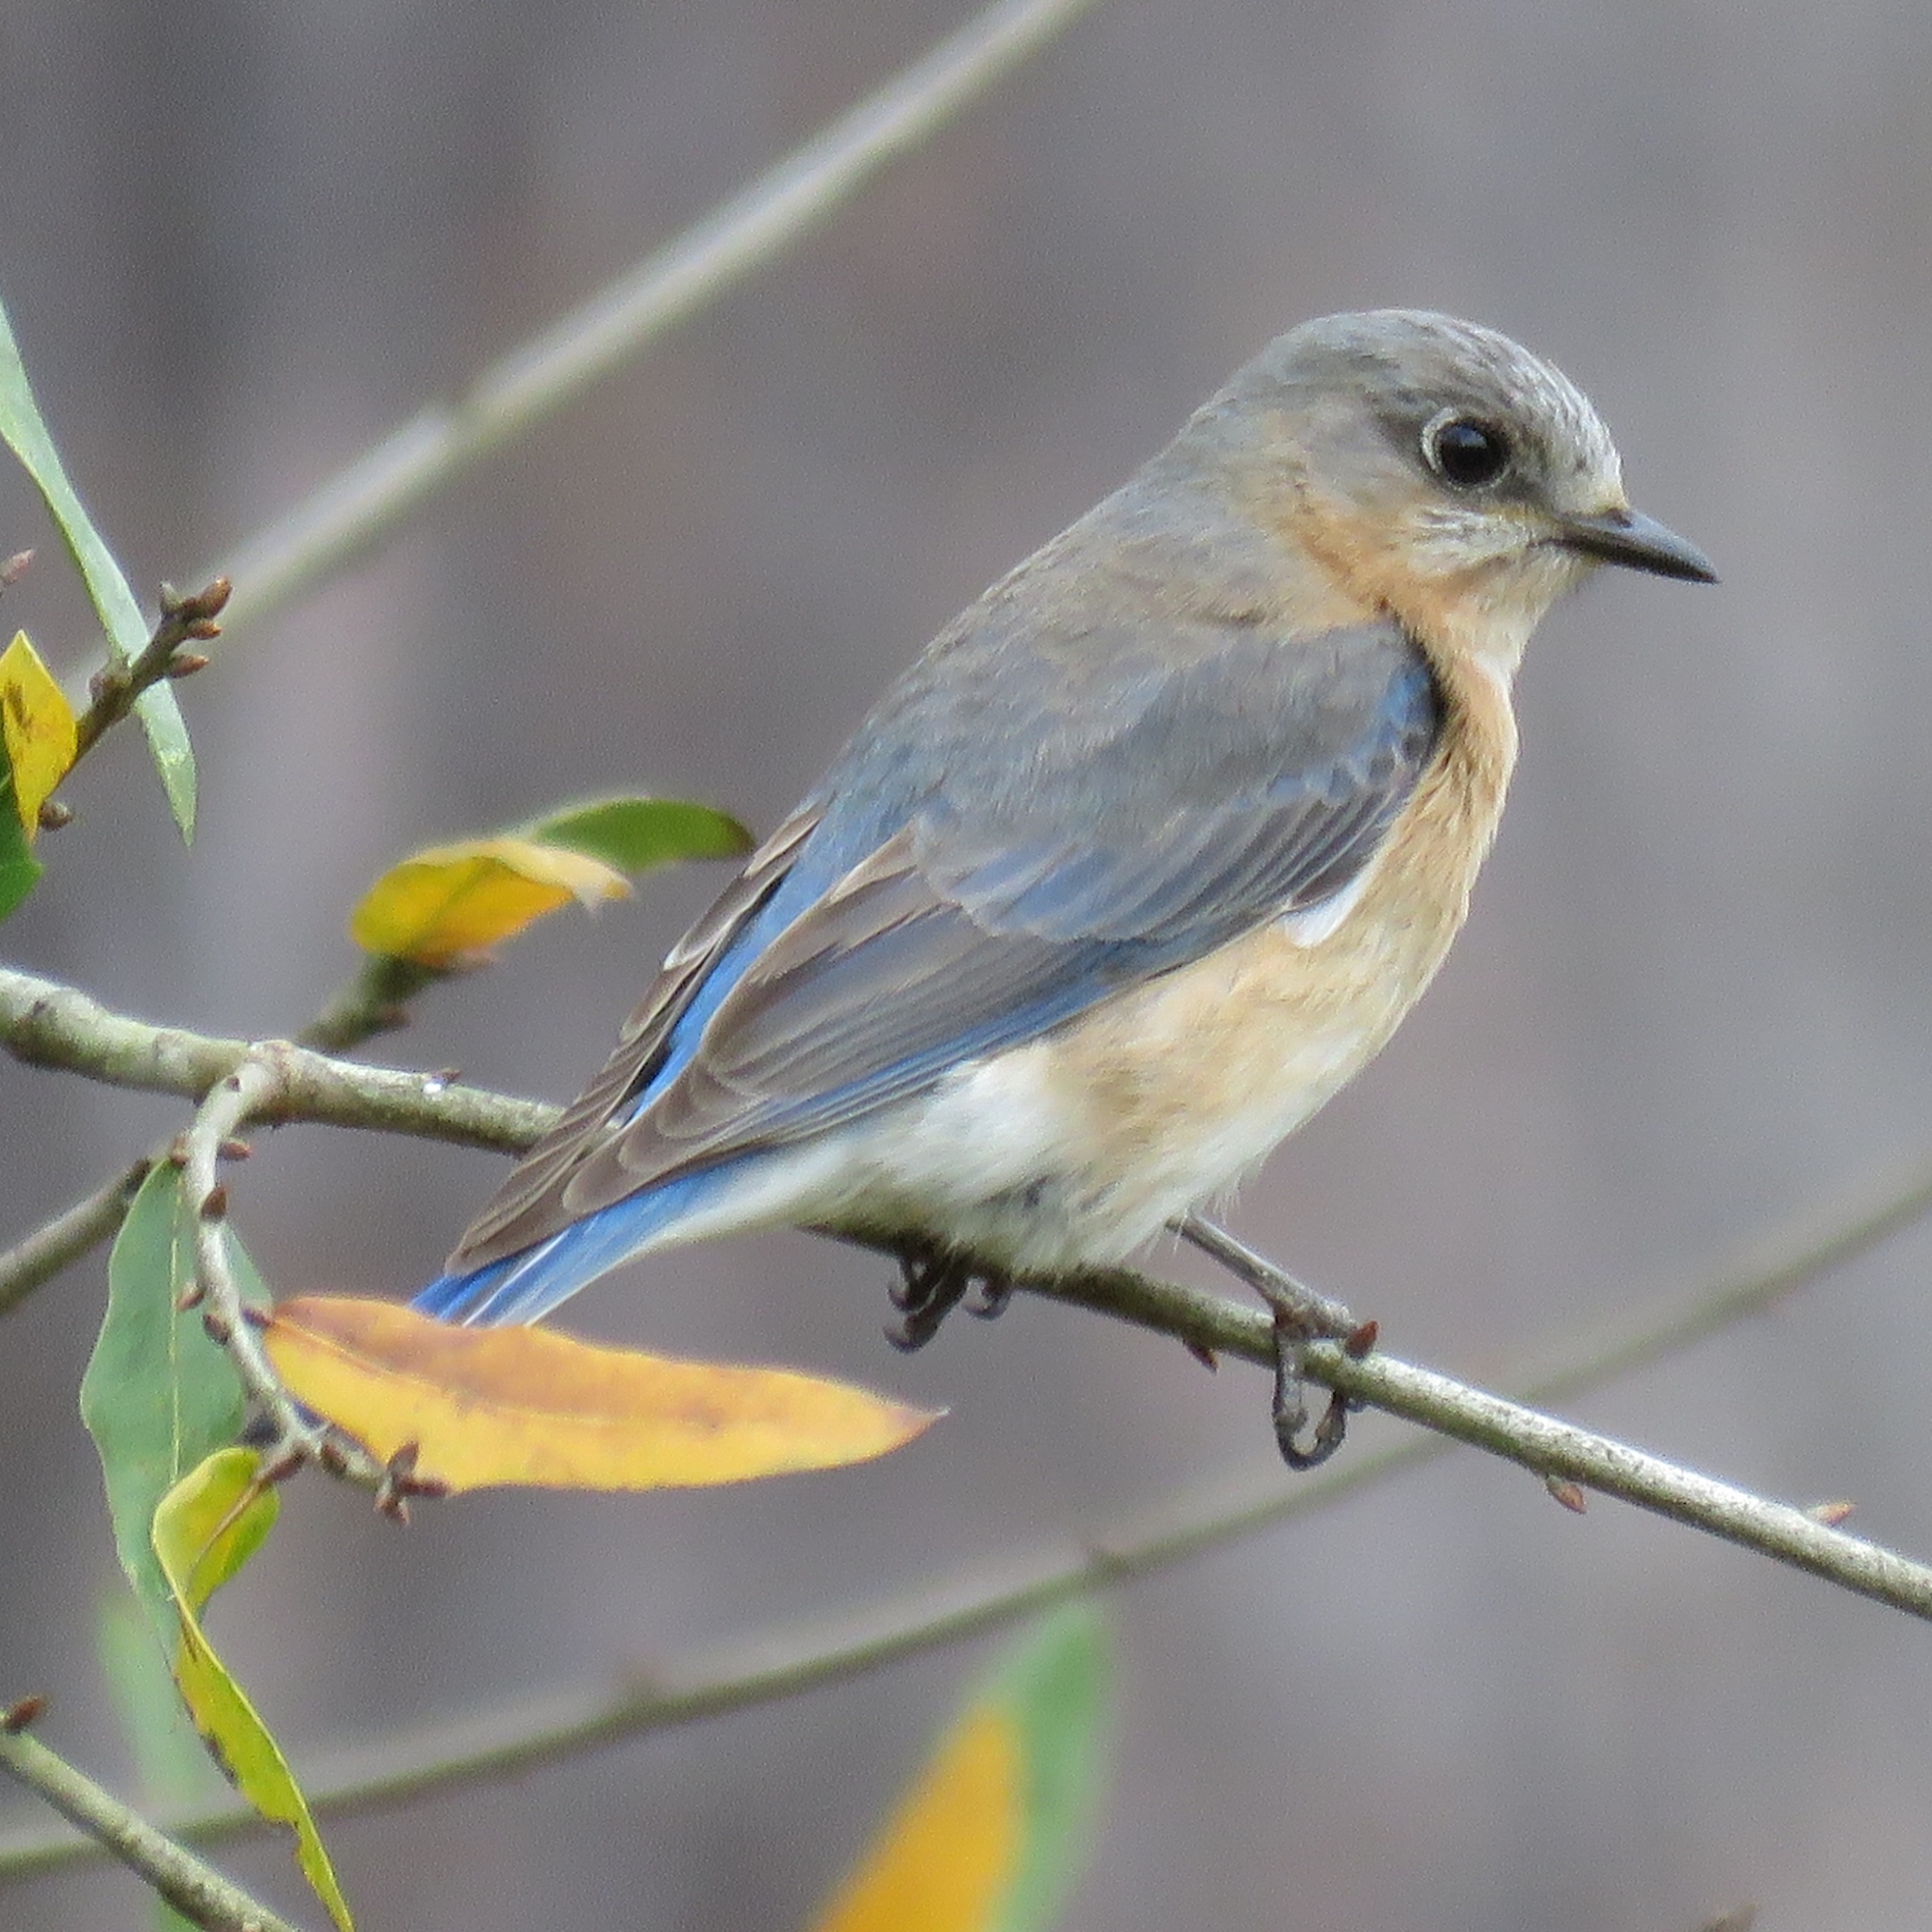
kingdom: Animalia
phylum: Chordata
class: Aves
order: Passeriformes
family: Turdidae
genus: Sialia
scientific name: Sialia sialis
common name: Eastern bluebird
